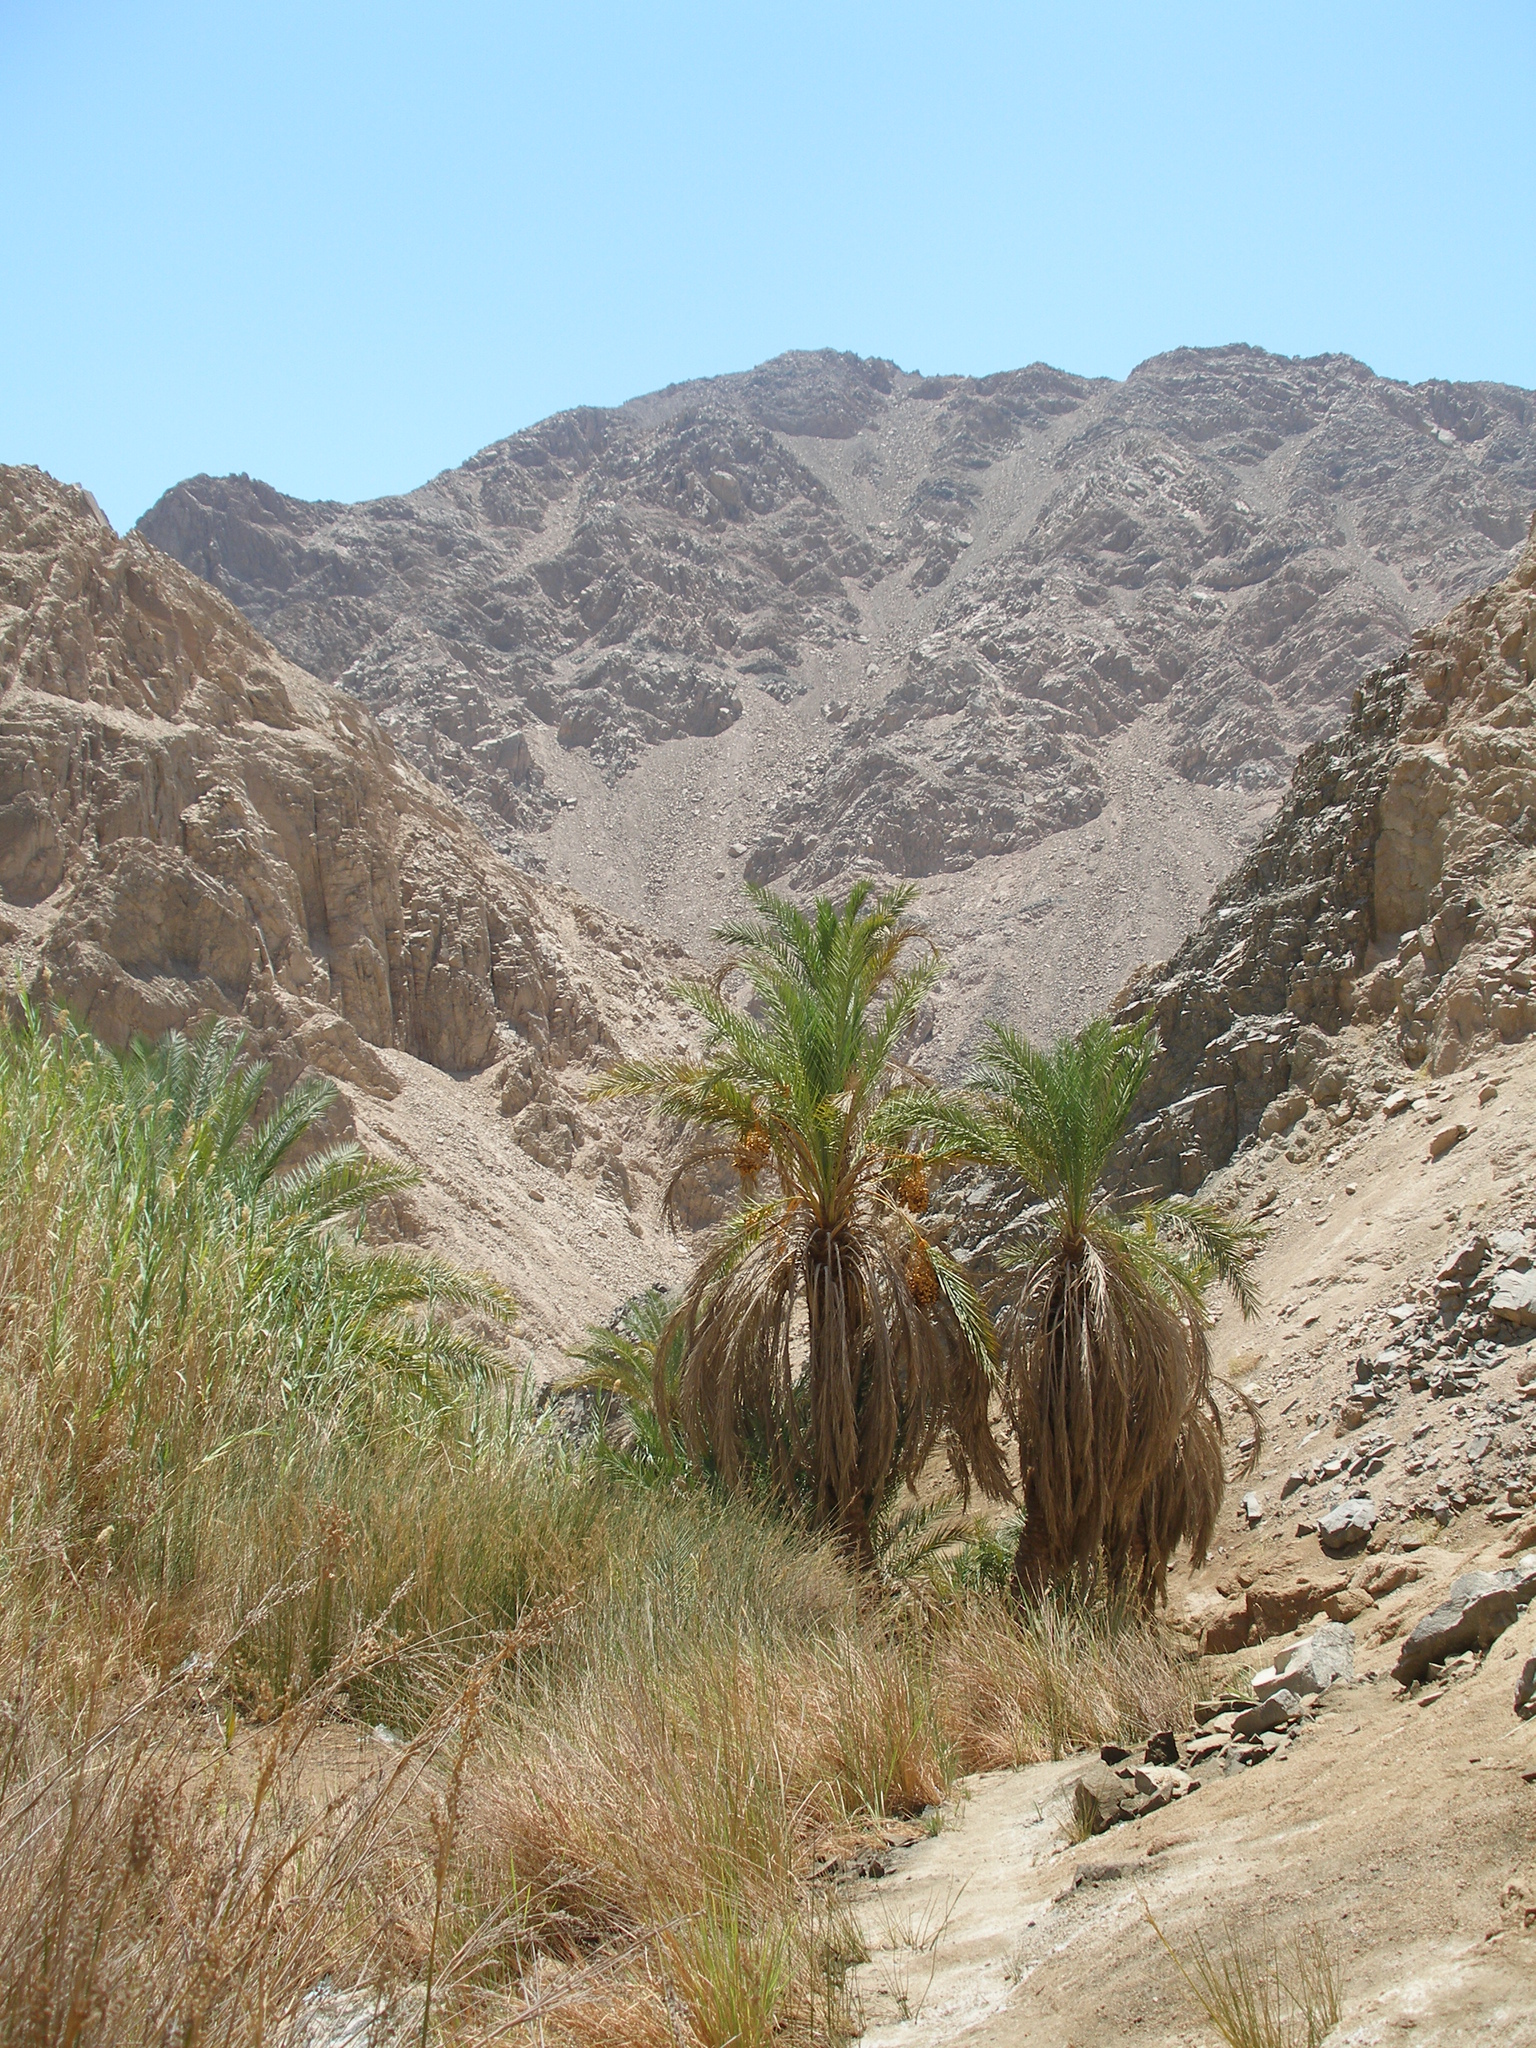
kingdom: Plantae
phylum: Tracheophyta
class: Liliopsida
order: Arecales
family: Arecaceae
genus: Phoenix
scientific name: Phoenix dactylifera
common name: Date palm
